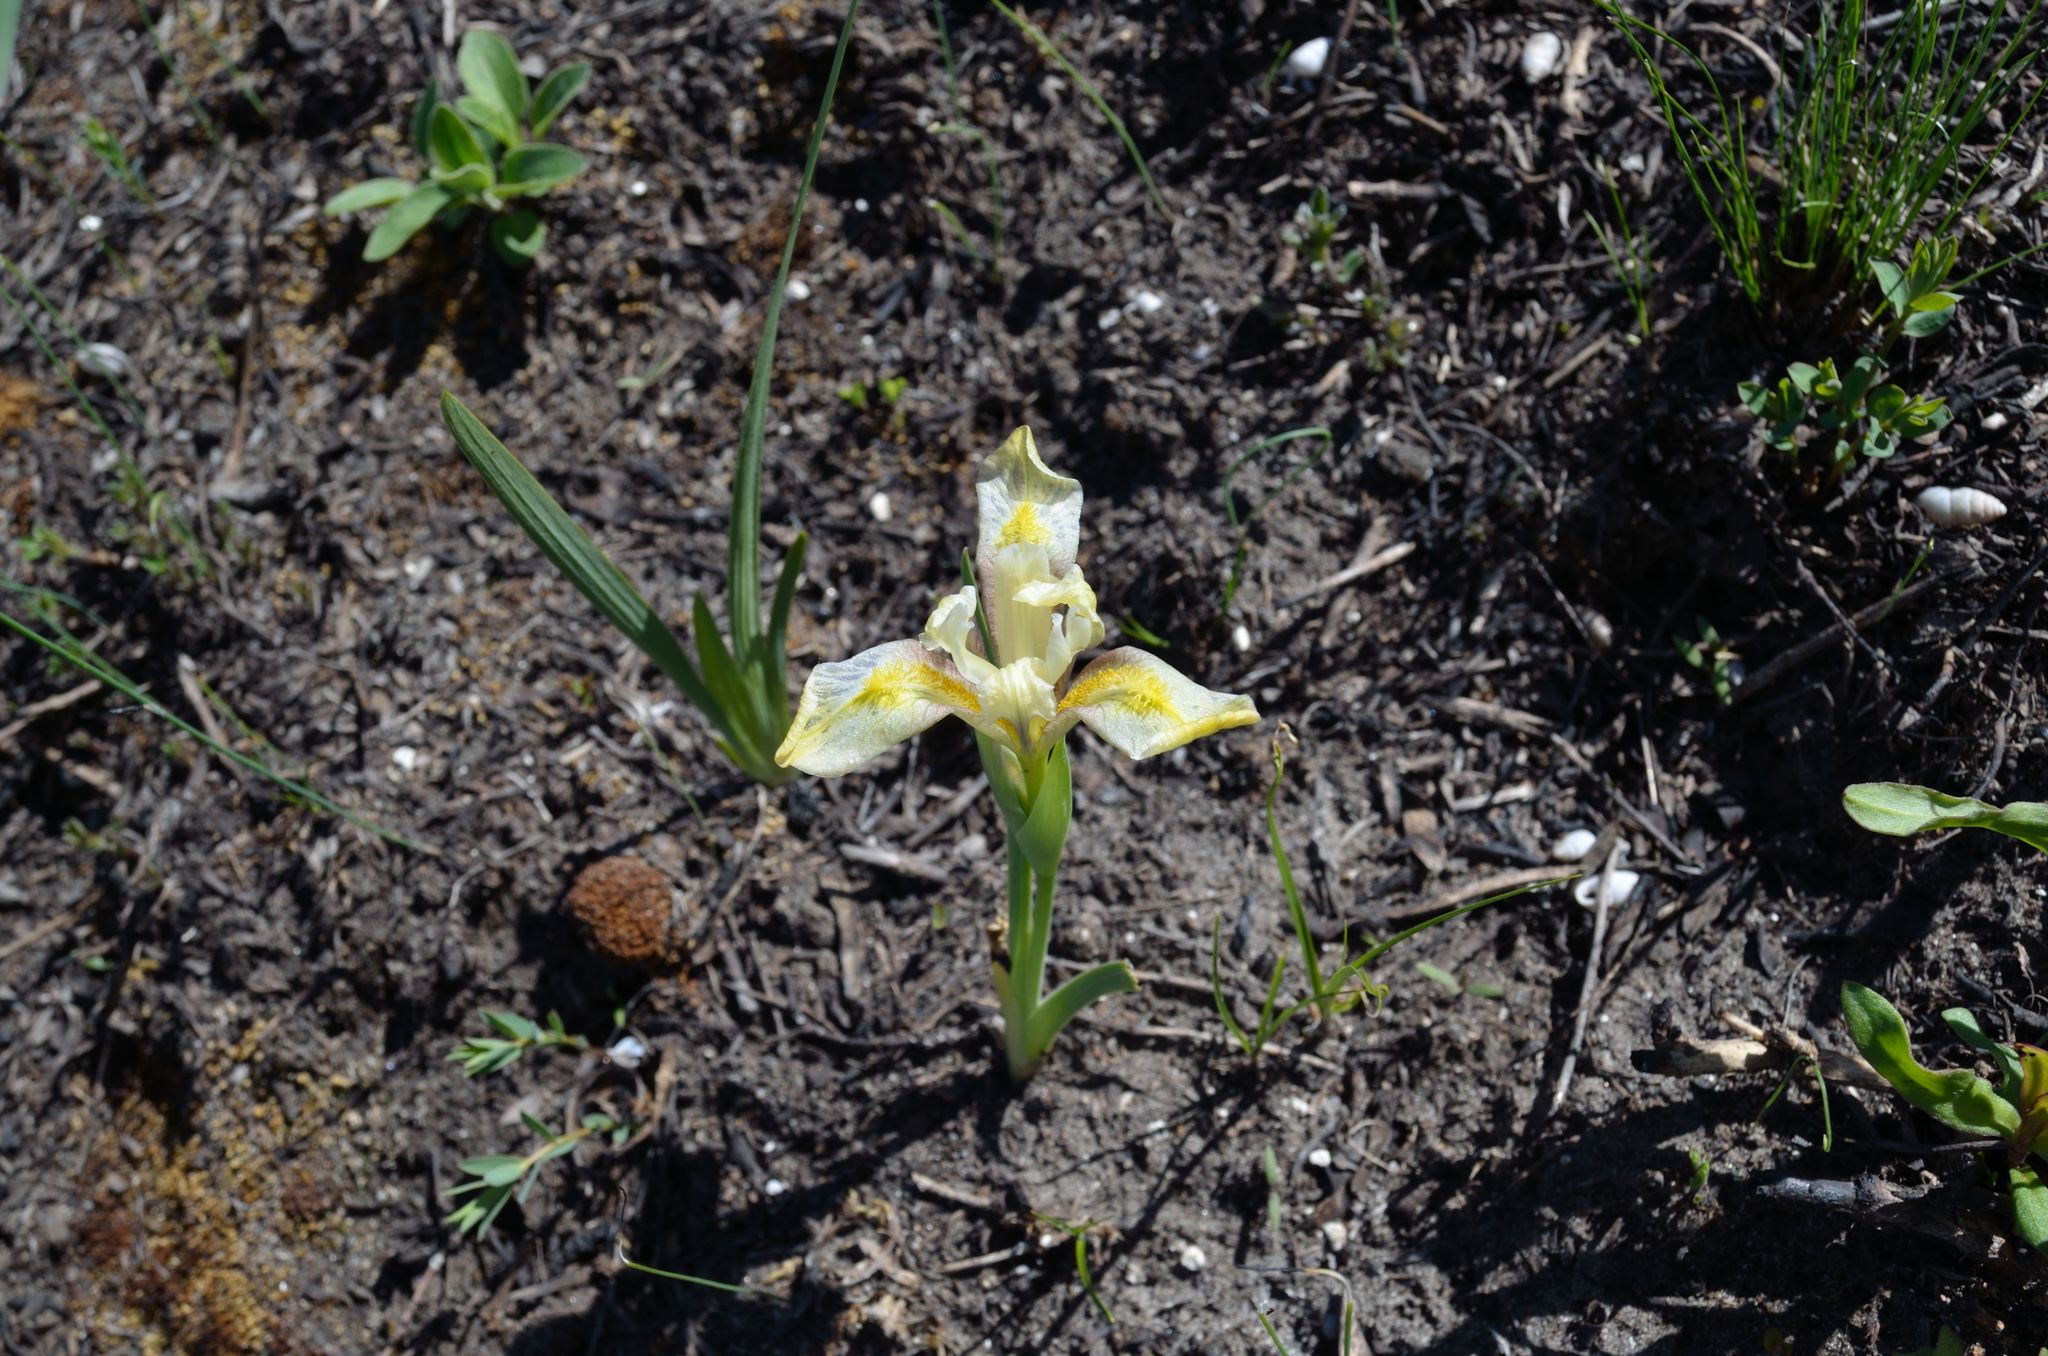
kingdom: Plantae
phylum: Tracheophyta
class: Liliopsida
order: Asparagales
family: Iridaceae
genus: Iris
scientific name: Iris pumila
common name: Dwarf iris
